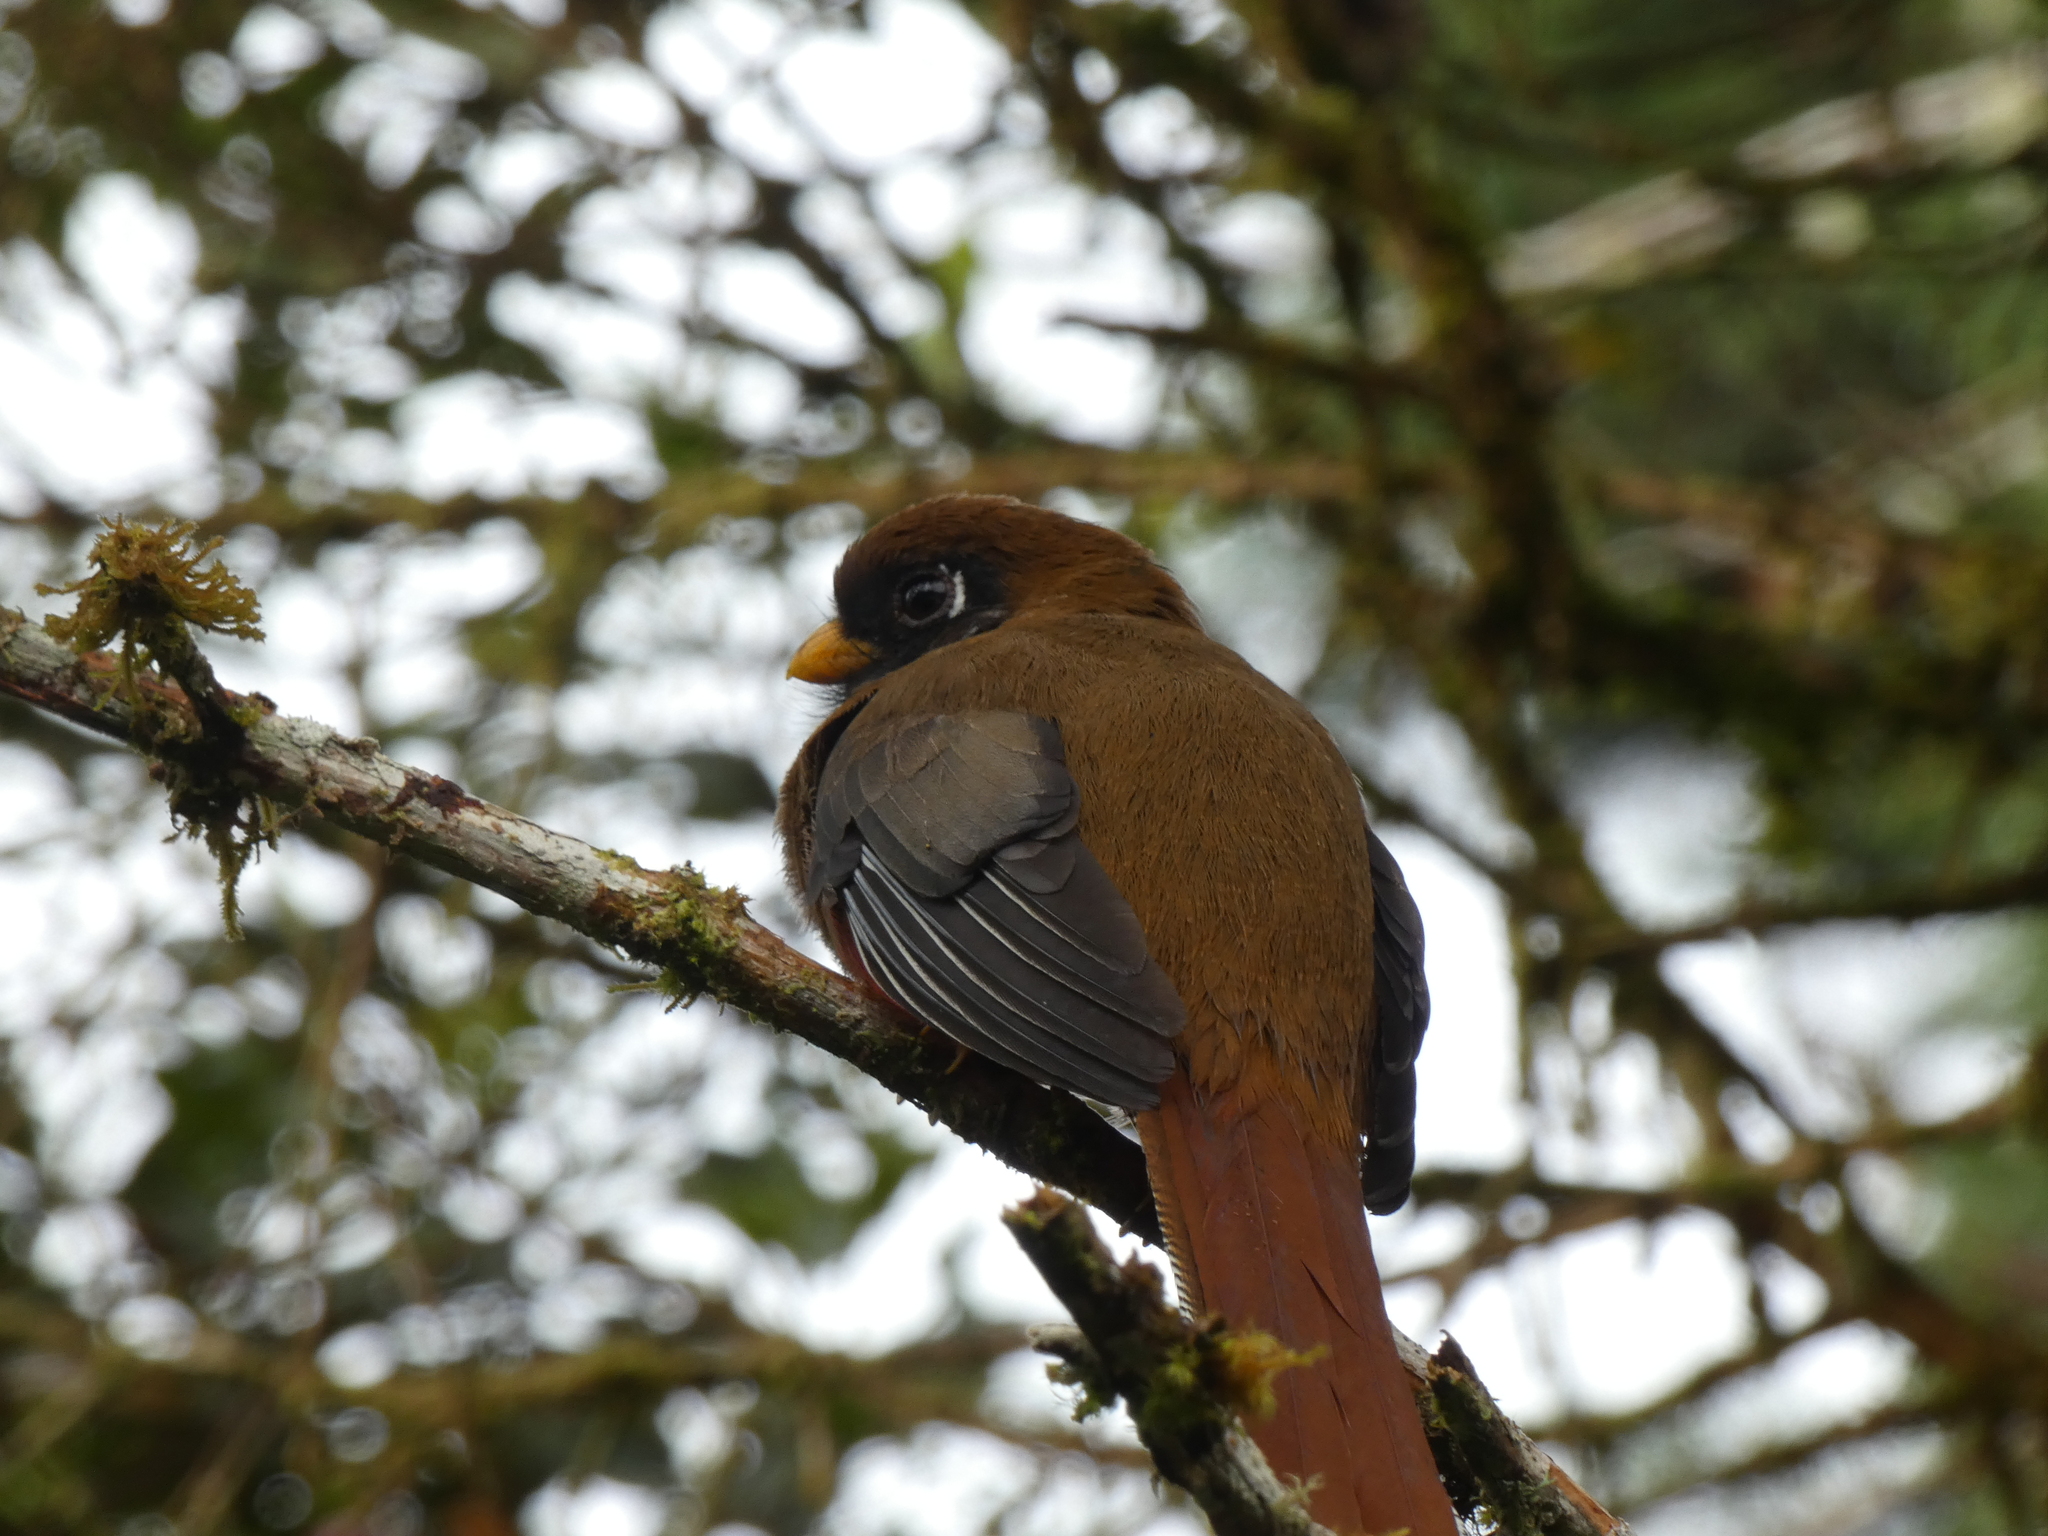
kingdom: Animalia
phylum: Chordata
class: Aves
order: Trogoniformes
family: Trogonidae
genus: Trogon
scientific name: Trogon personatus
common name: Masked trogon
